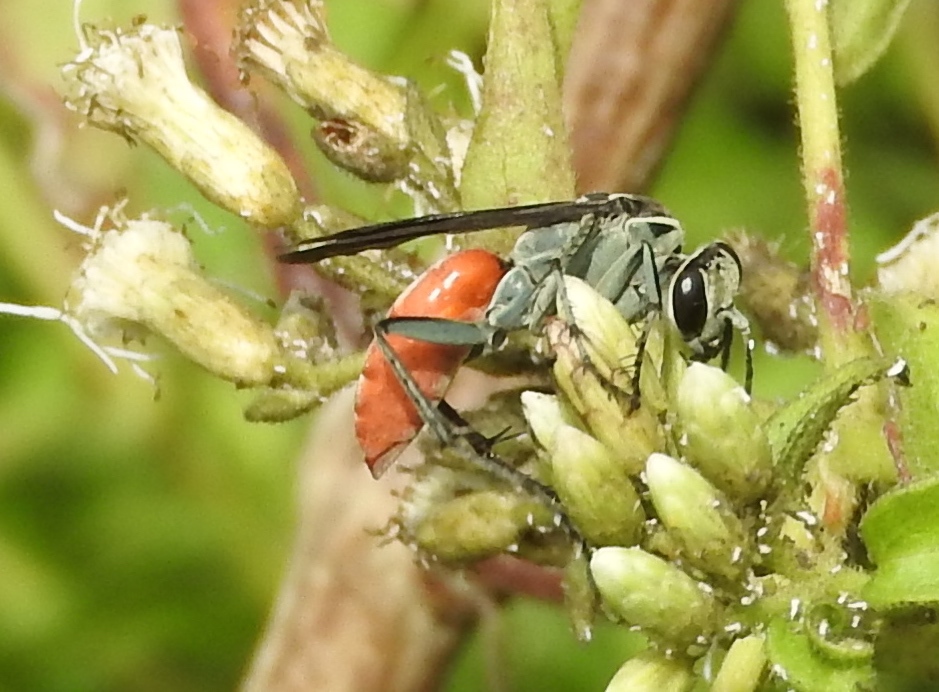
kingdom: Animalia
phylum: Arthropoda
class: Insecta
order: Hymenoptera
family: Pompilidae
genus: Xerochares
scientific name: Xerochares expulsus
